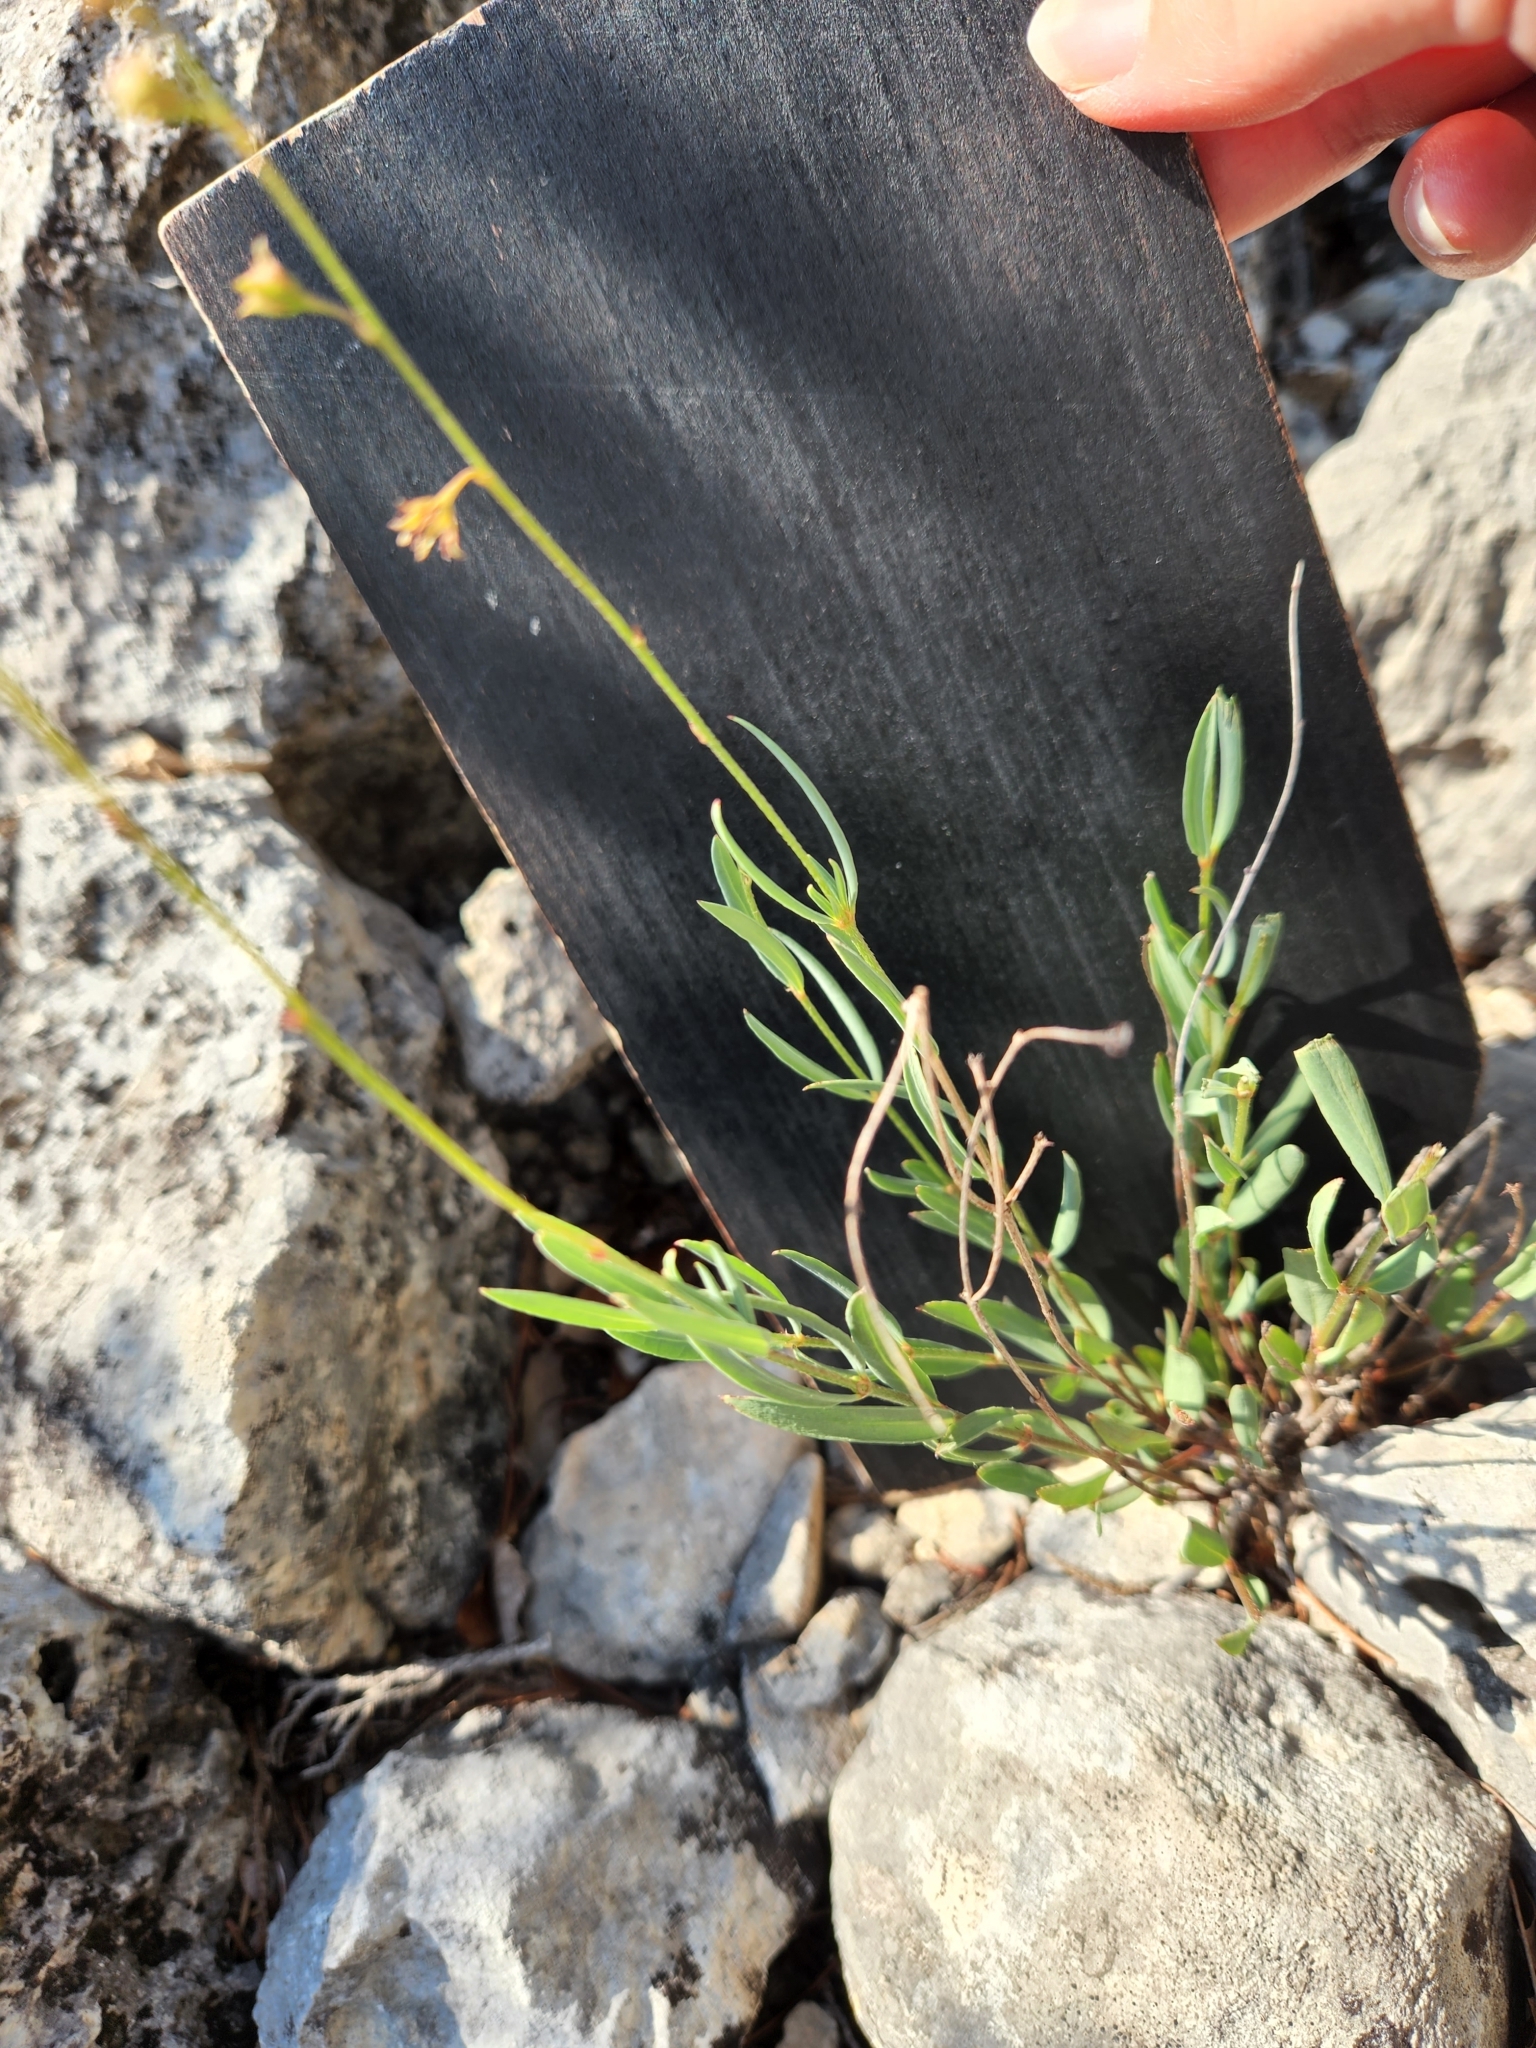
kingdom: Plantae
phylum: Tracheophyta
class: Magnoliopsida
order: Malpighiales
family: Malpighiaceae
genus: Galphimia
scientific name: Galphimia angustifolia
